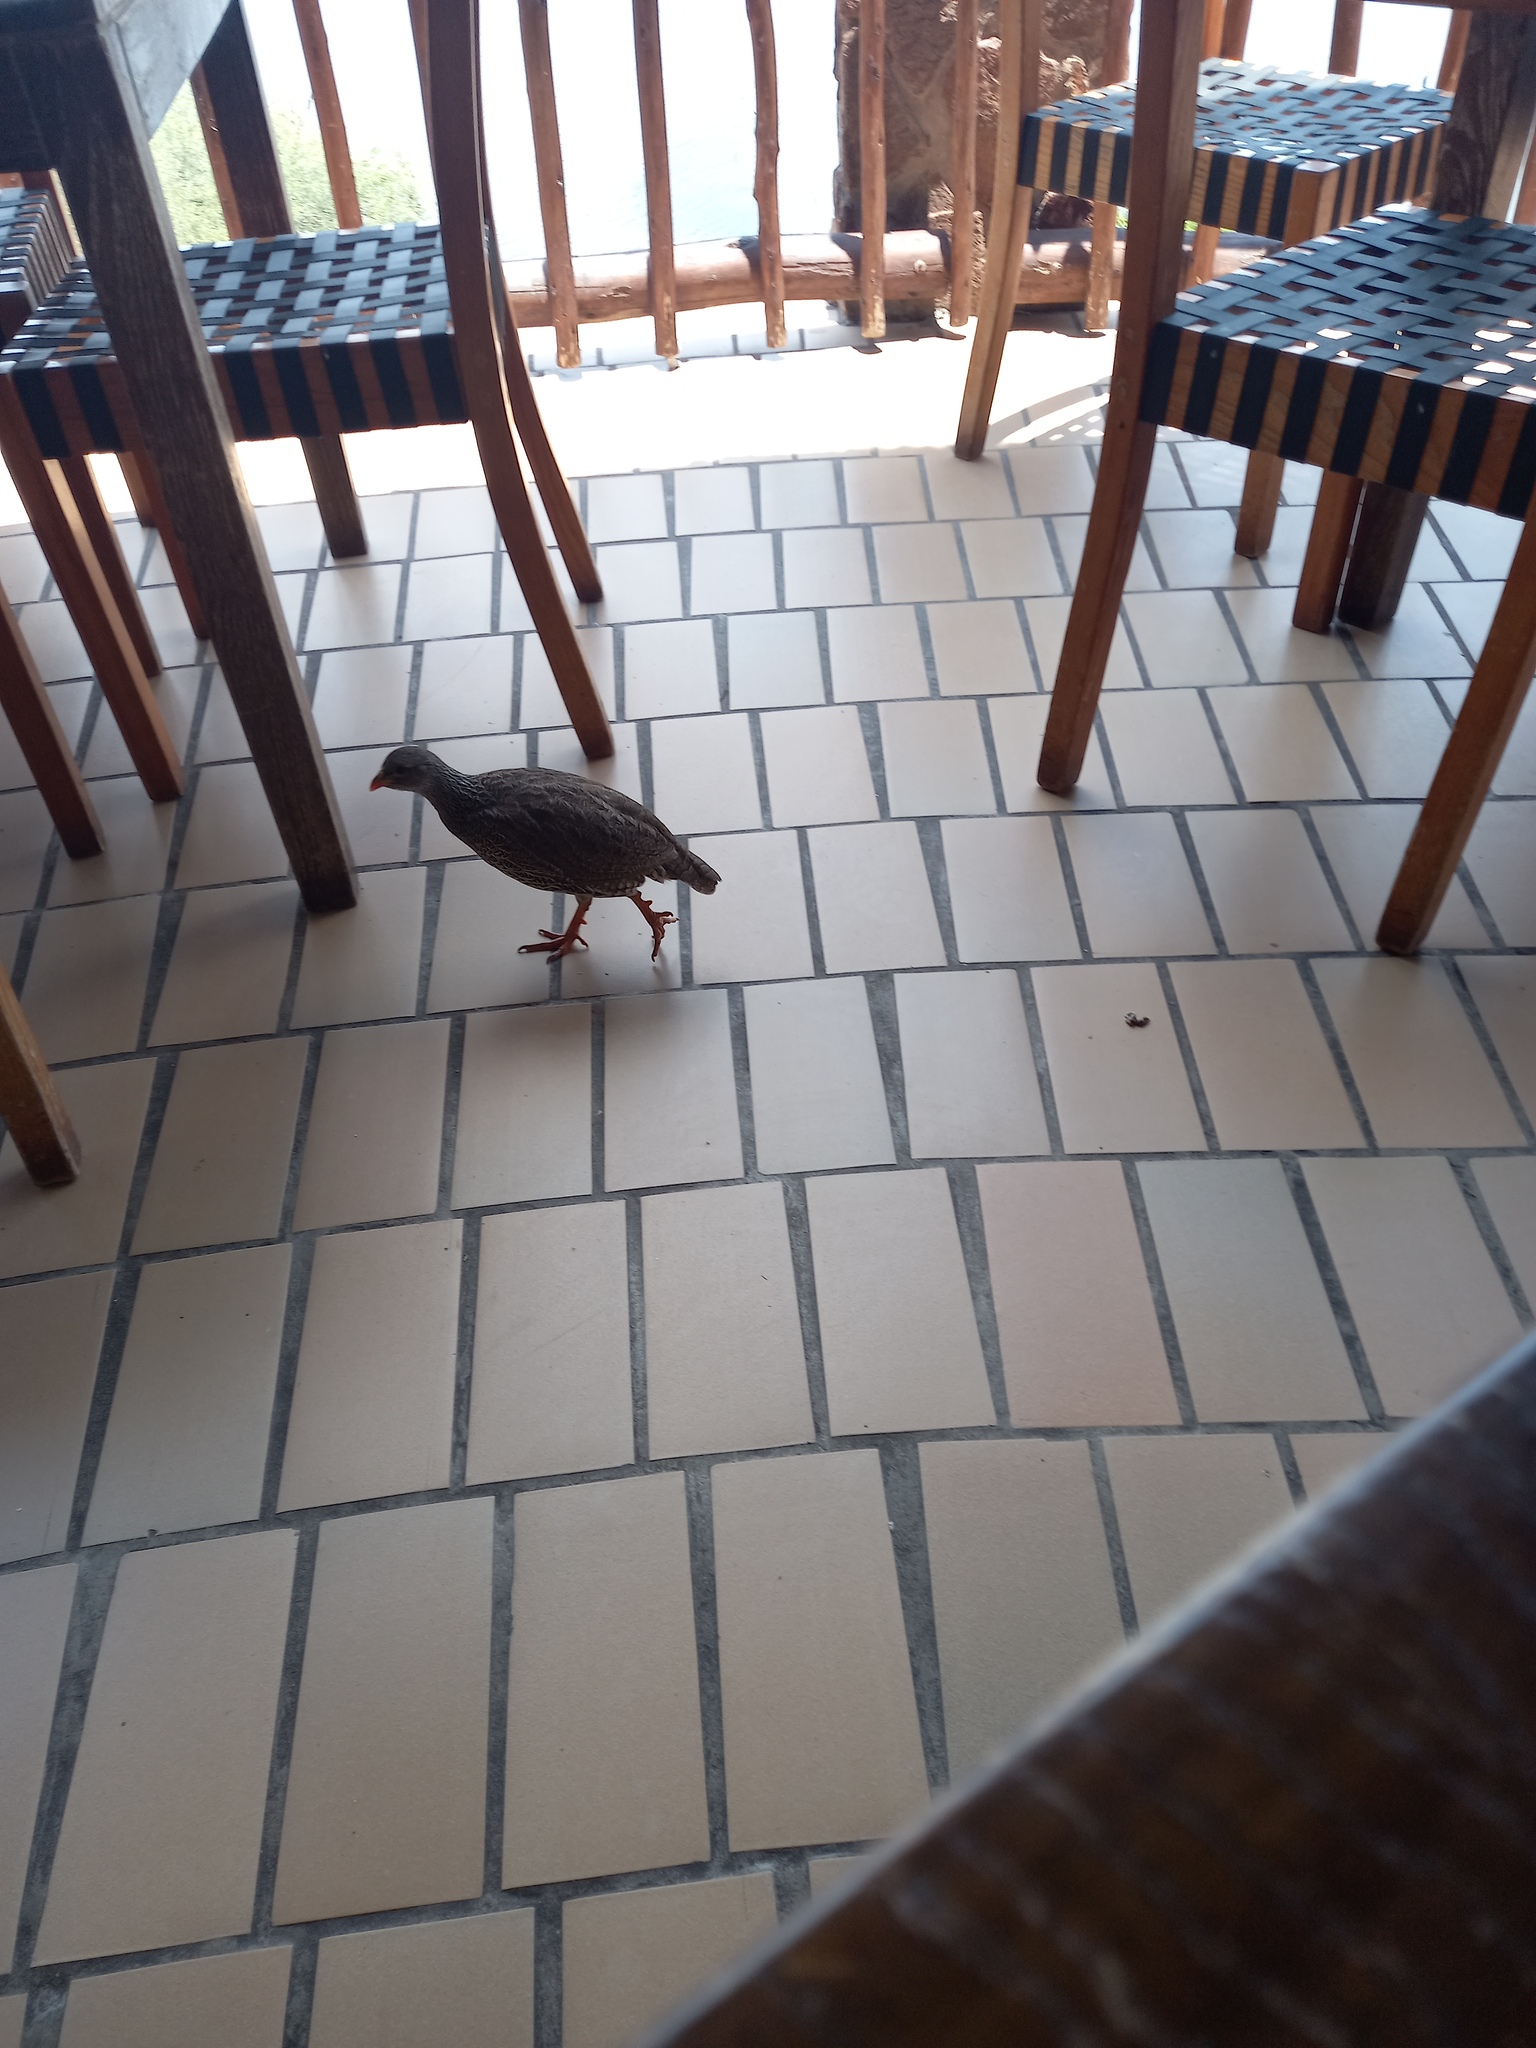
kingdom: Animalia
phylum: Chordata
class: Aves
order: Galliformes
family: Phasianidae
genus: Pternistis
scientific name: Pternistis natalensis
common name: Natal spurfowl
